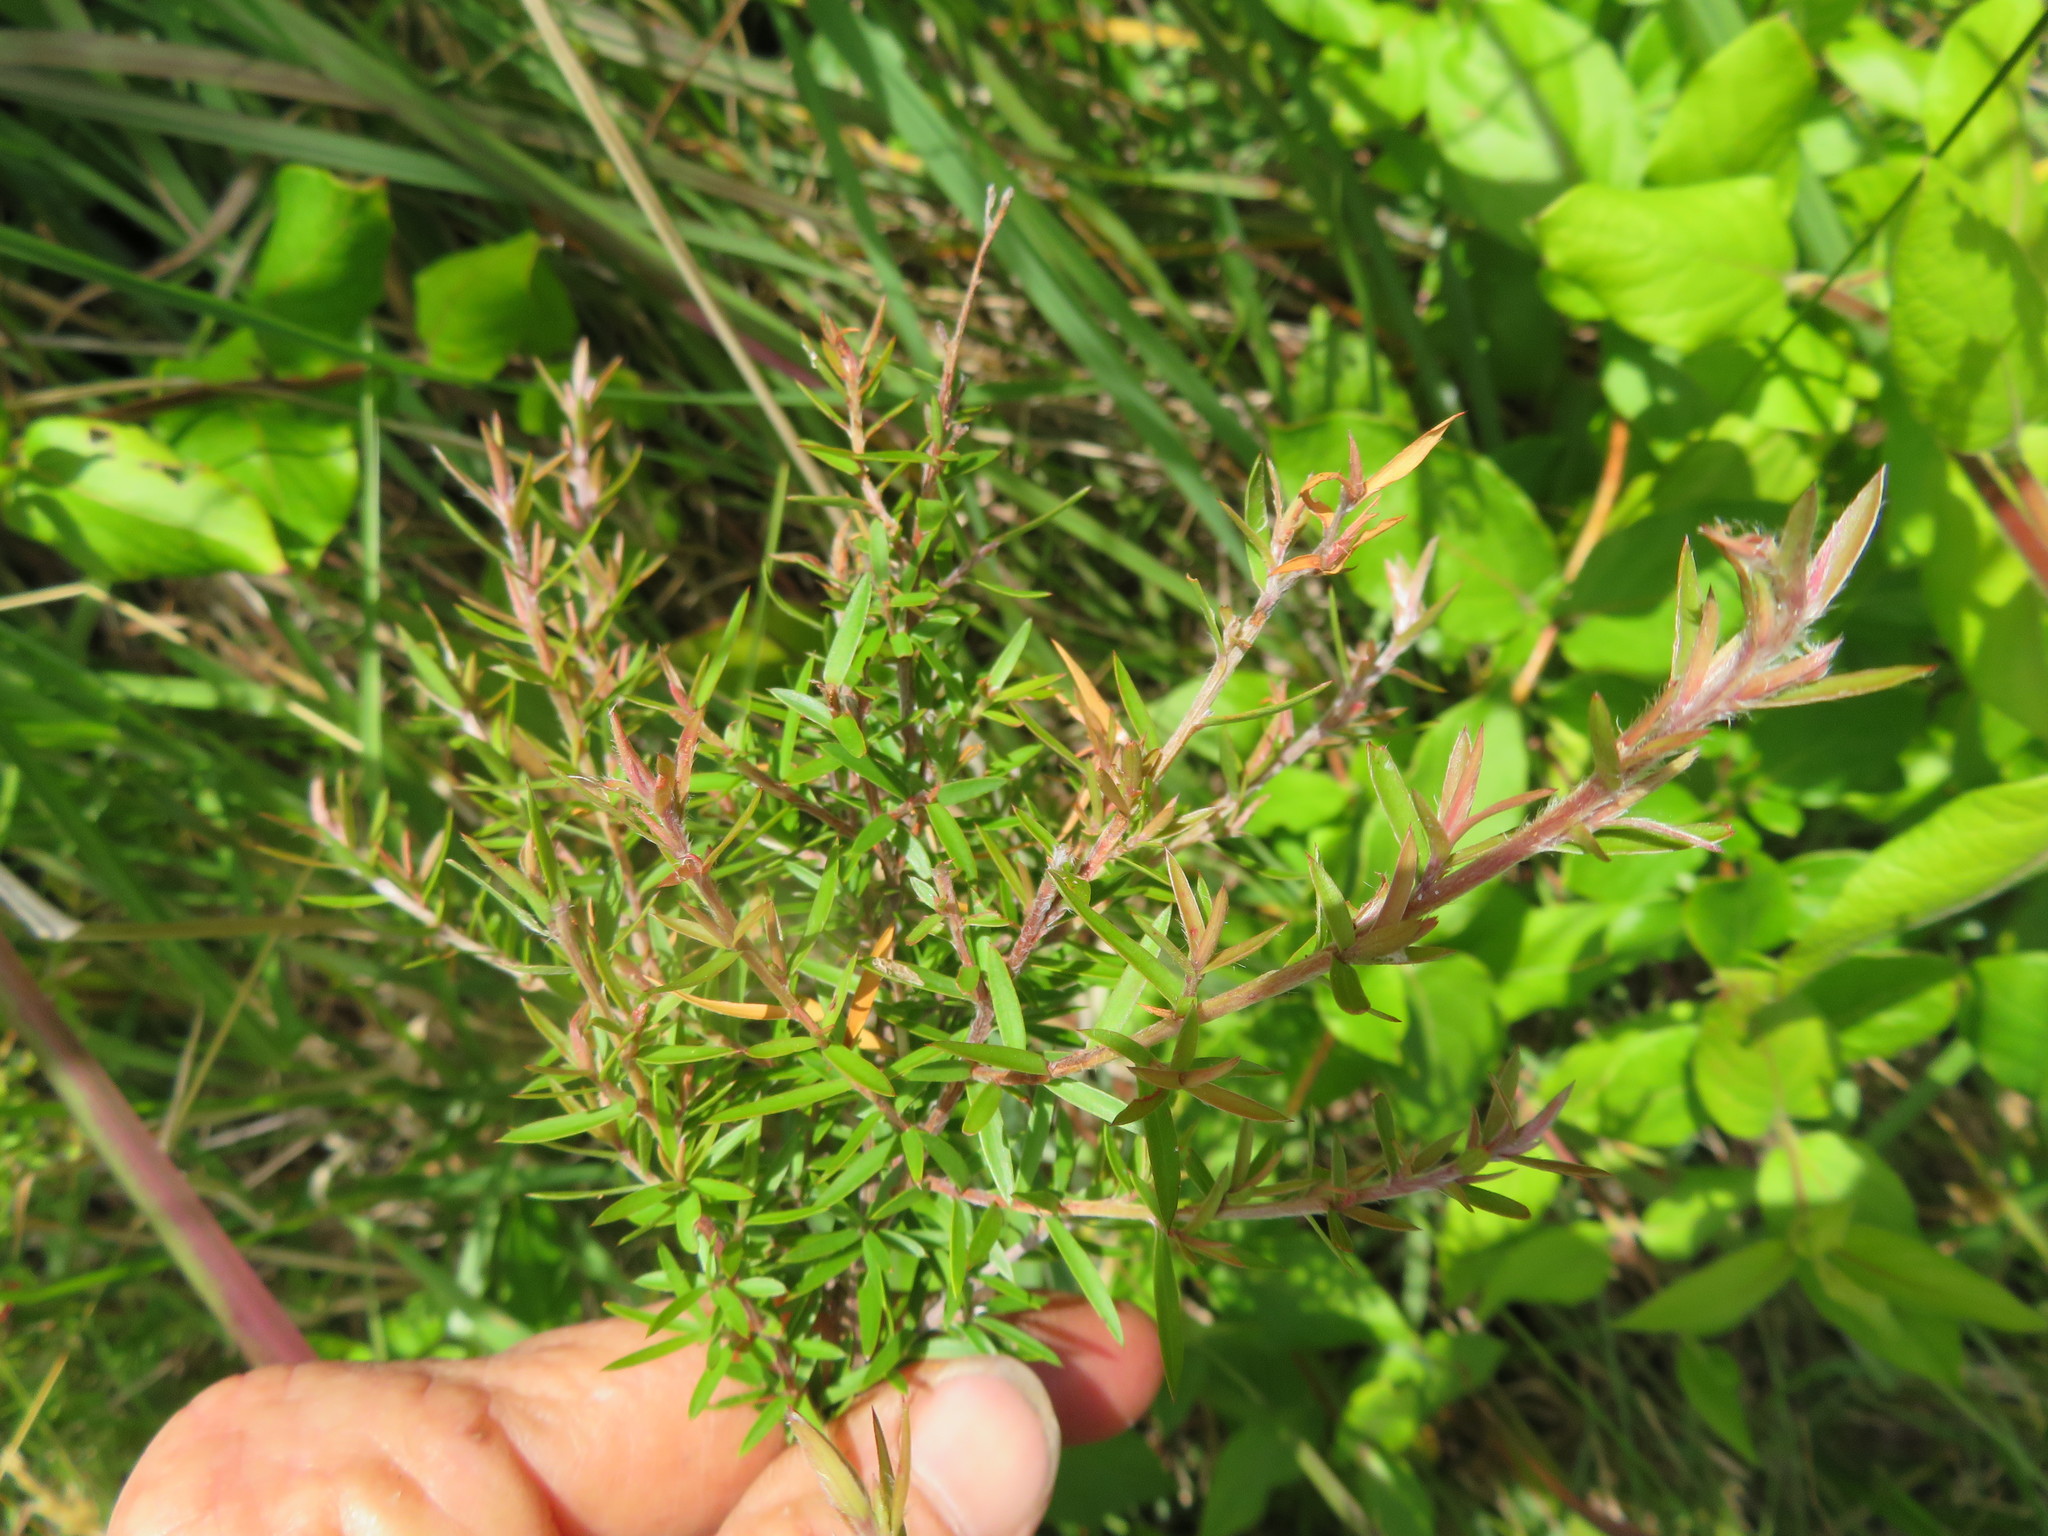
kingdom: Plantae
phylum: Tracheophyta
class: Magnoliopsida
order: Myrtales
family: Myrtaceae
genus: Leptospermum
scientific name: Leptospermum scoparium
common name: Broom tea-tree
